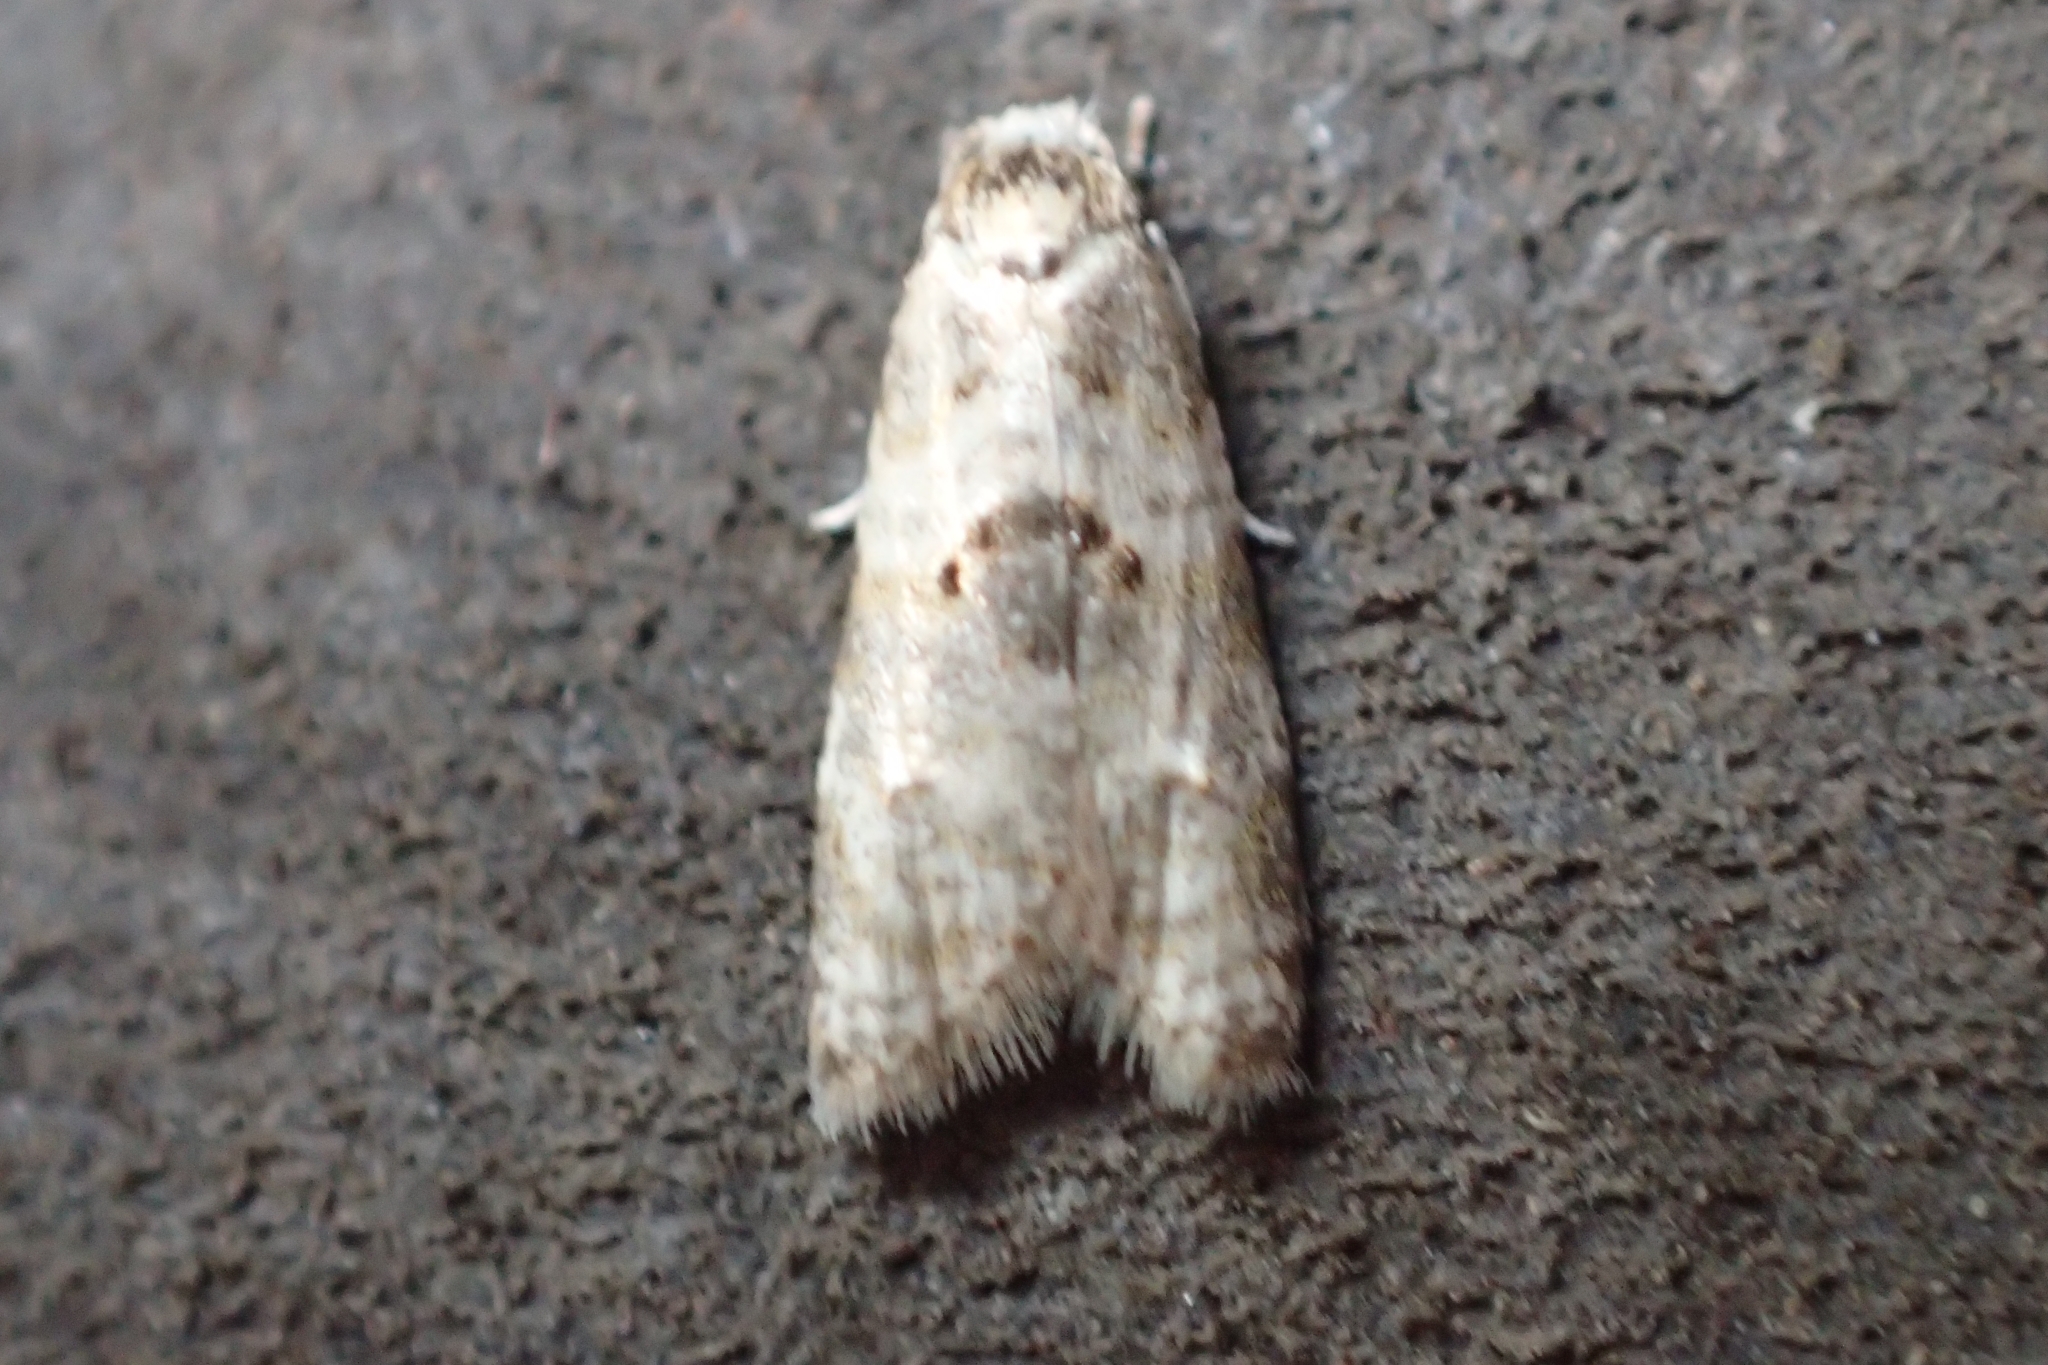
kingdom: Animalia
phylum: Arthropoda
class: Insecta
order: Lepidoptera
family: Tortricidae
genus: Dipterina
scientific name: Dipterina imbriferana
